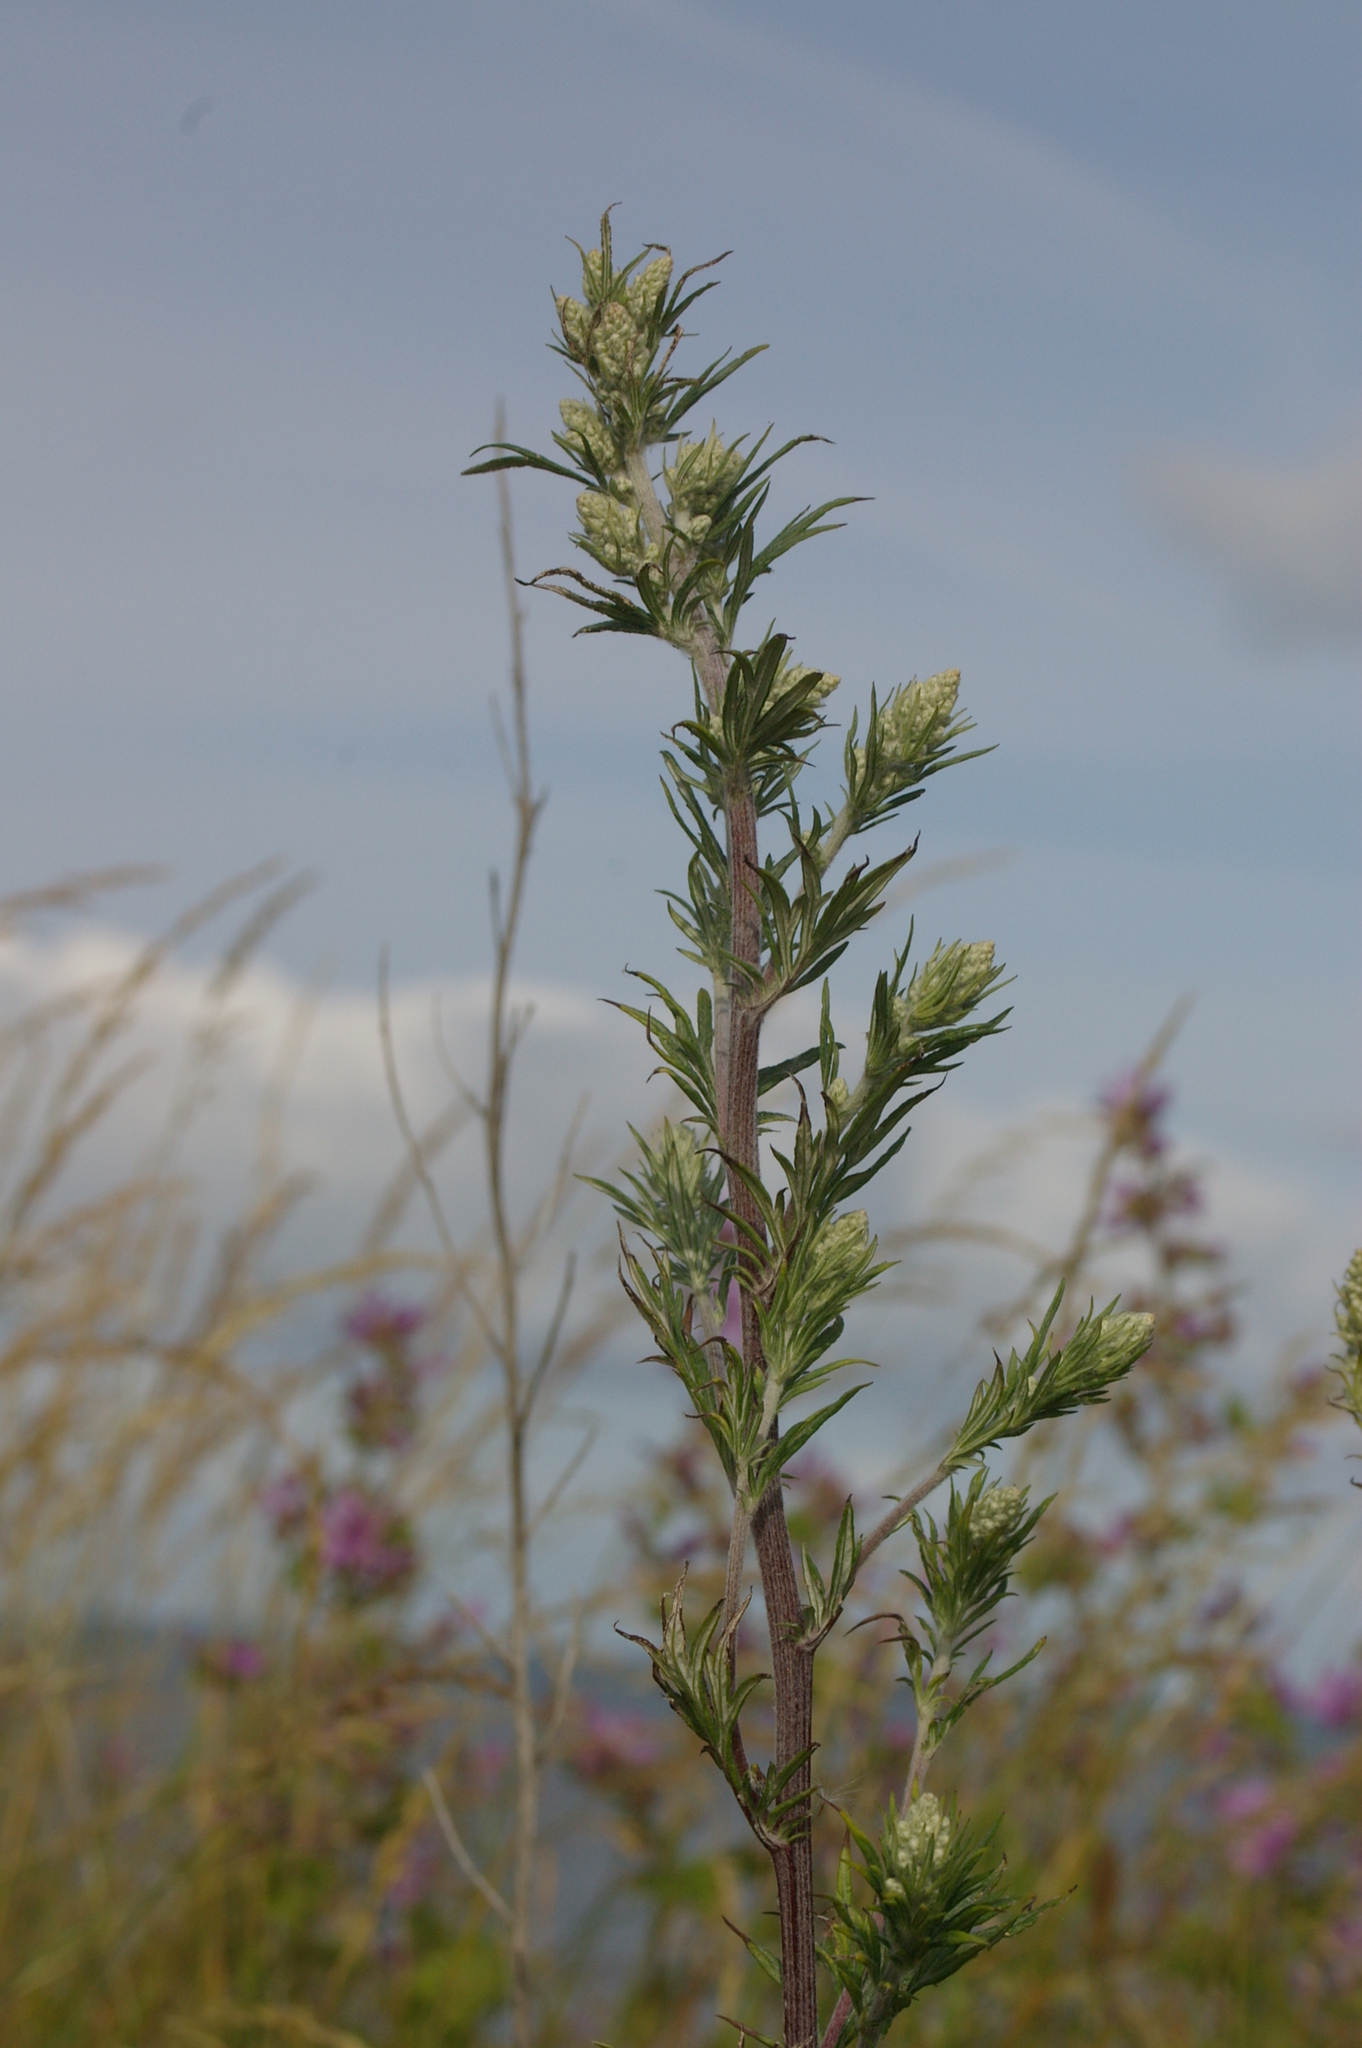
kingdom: Plantae
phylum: Tracheophyta
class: Magnoliopsida
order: Asterales
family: Asteraceae
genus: Artemisia
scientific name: Artemisia vulgaris
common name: Mugwort
